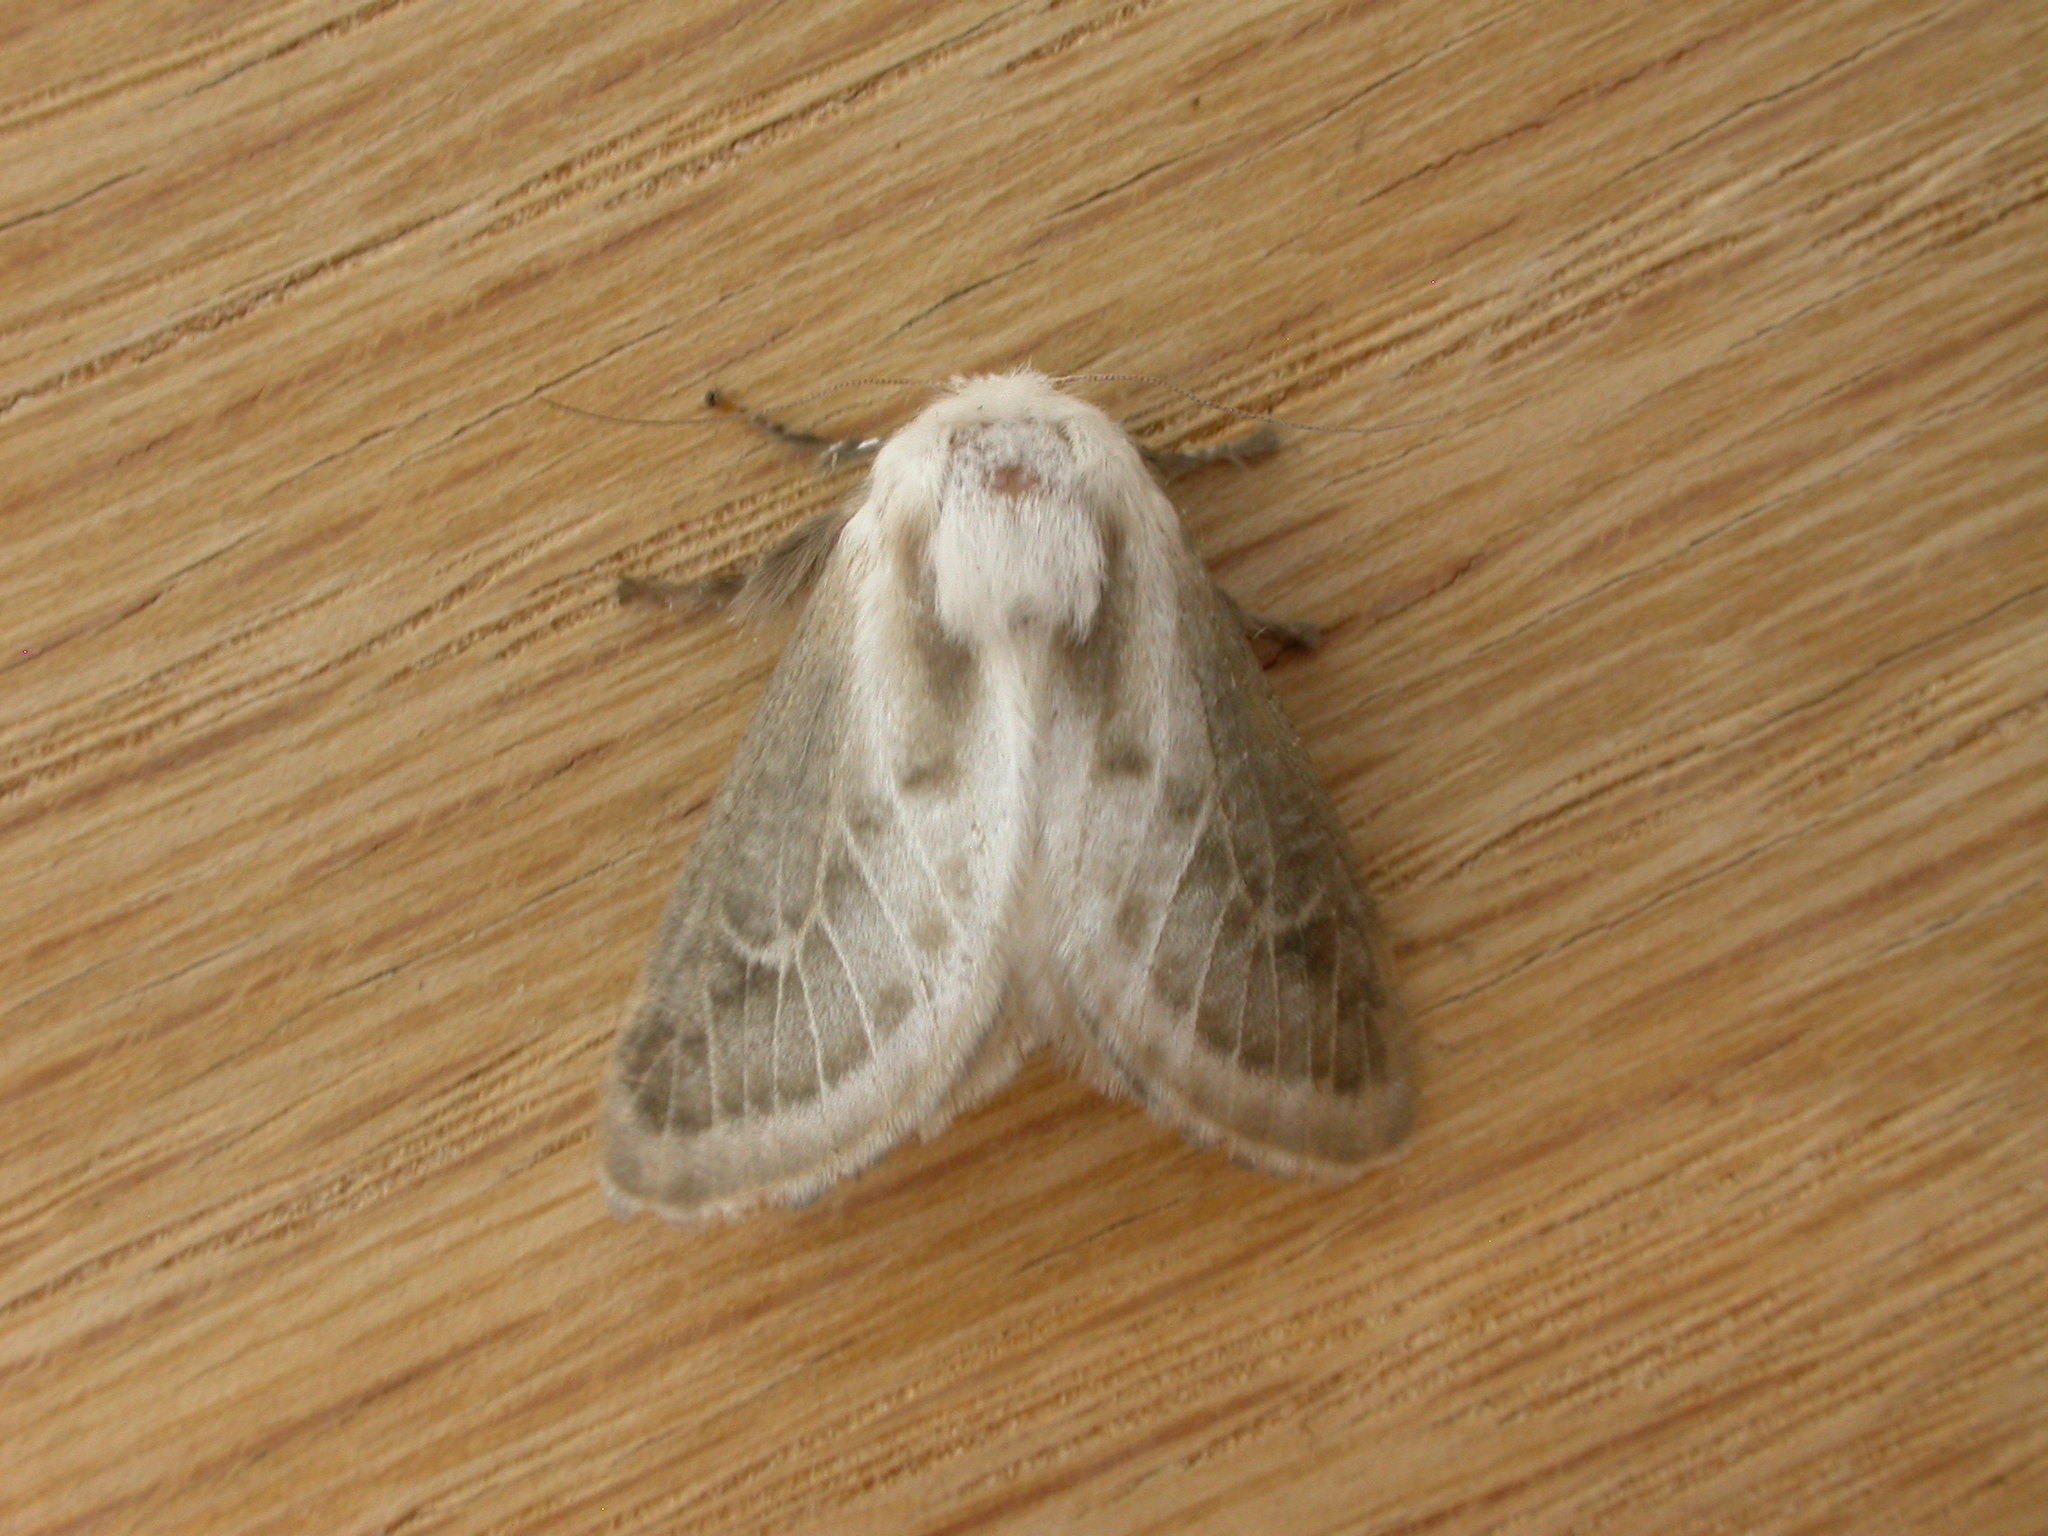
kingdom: Animalia
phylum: Arthropoda
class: Insecta
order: Lepidoptera
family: Limacodidae
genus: Doratifera
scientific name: Doratifera pinguis
